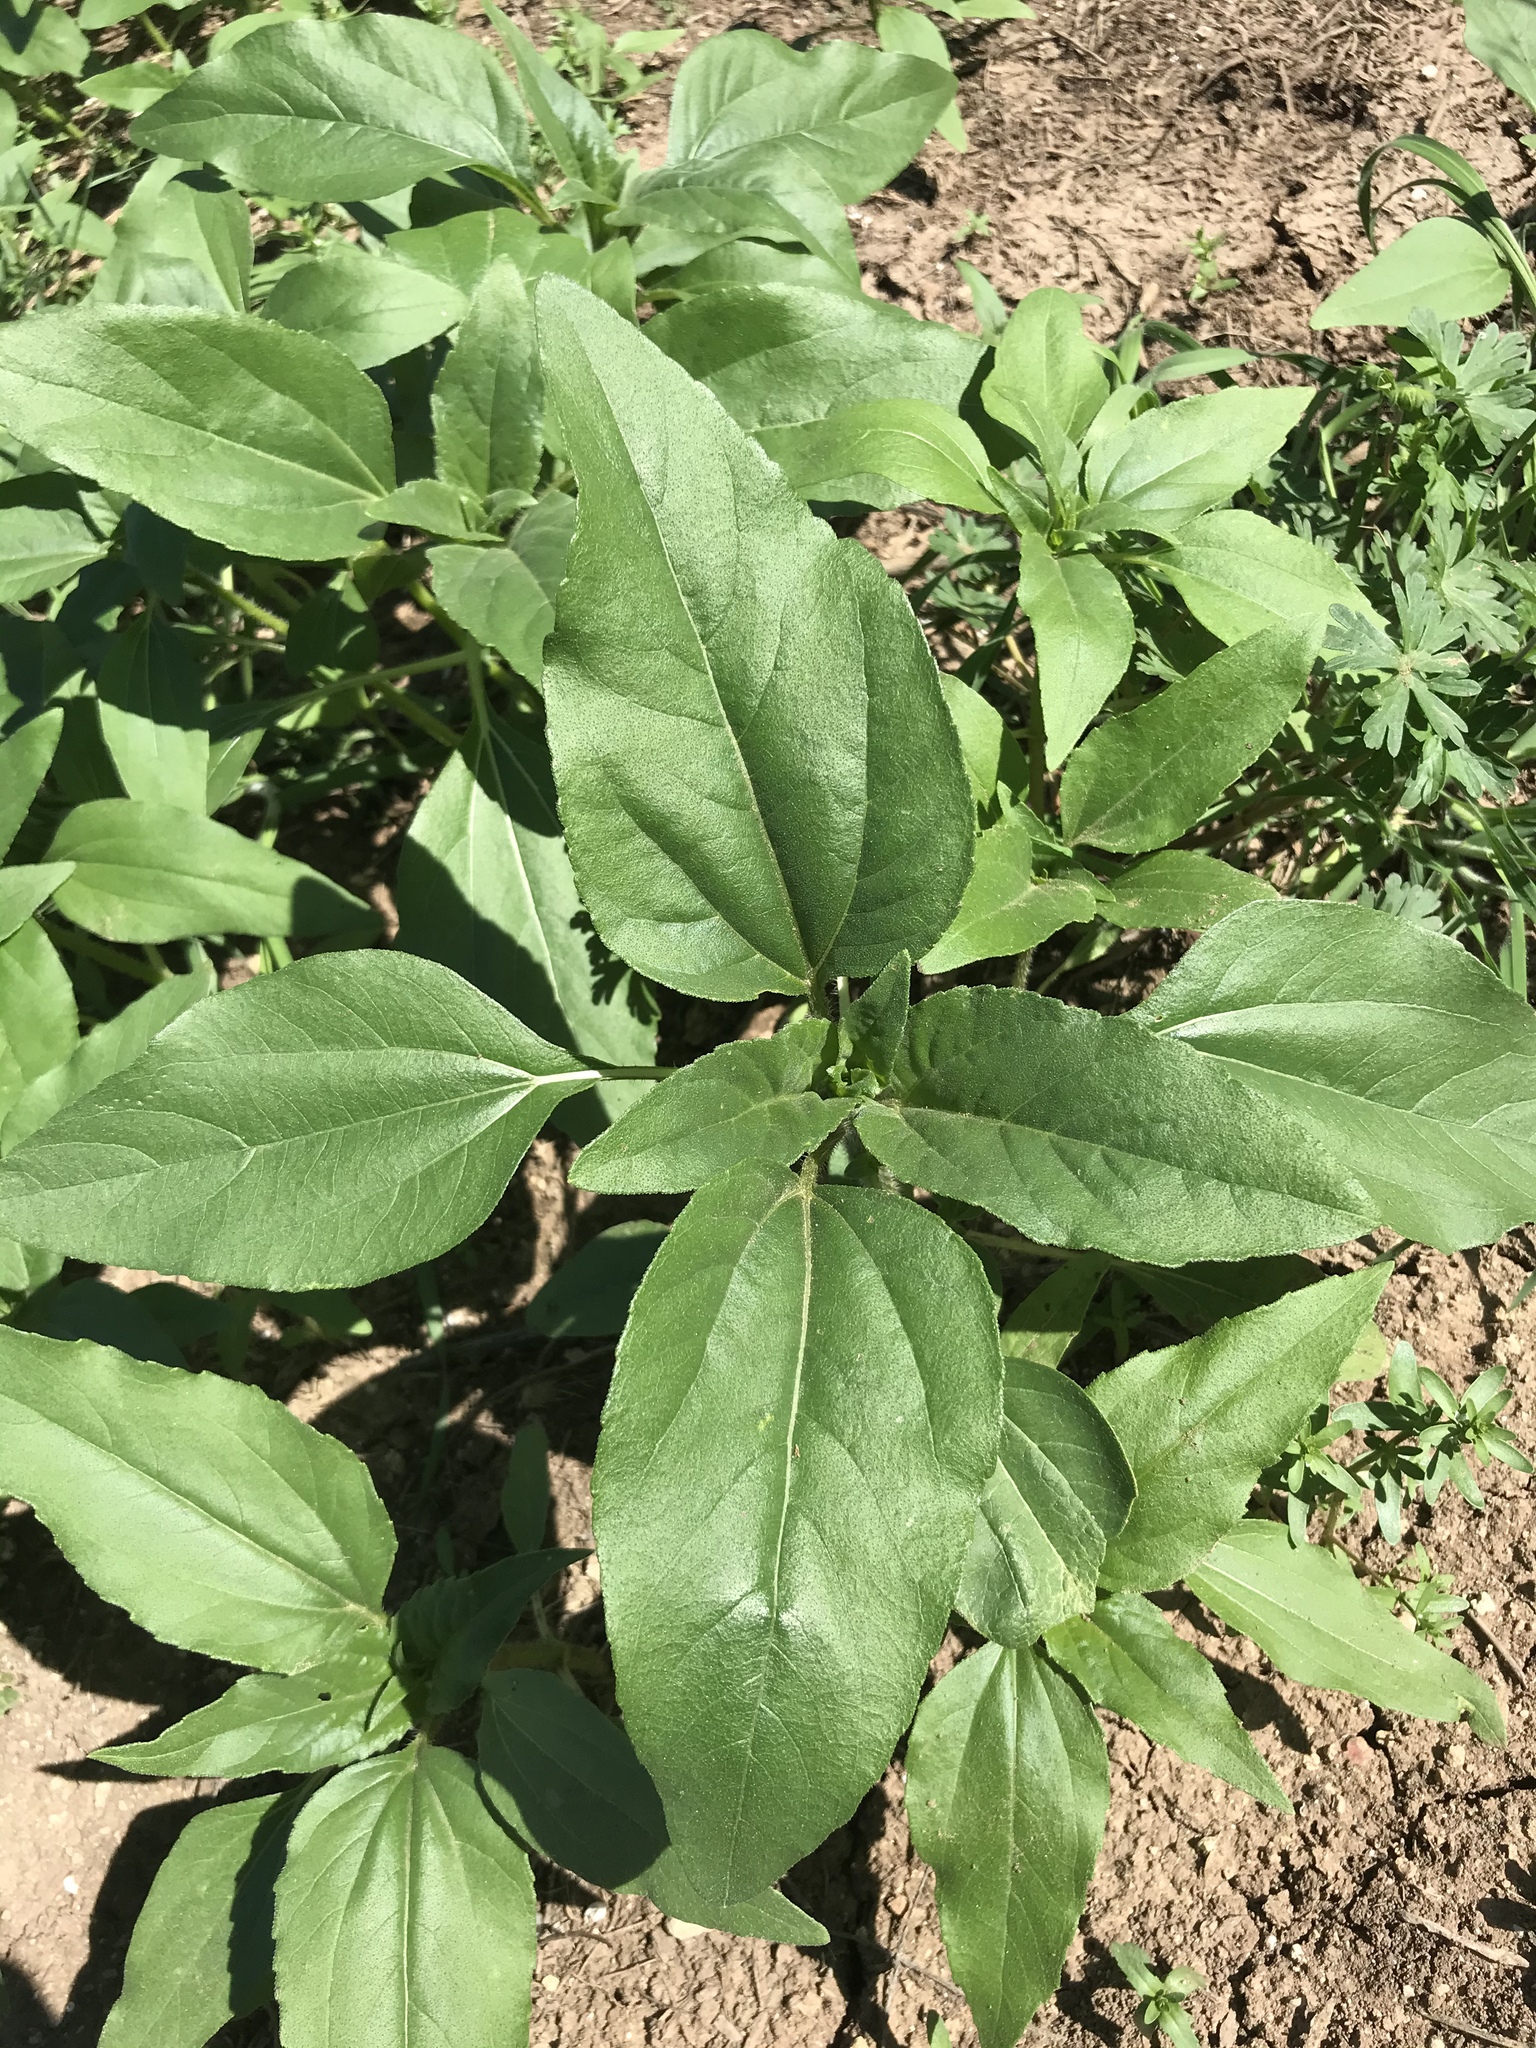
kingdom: Plantae
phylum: Tracheophyta
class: Magnoliopsida
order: Asterales
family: Asteraceae
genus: Helianthus
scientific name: Helianthus annuus
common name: Sunflower
